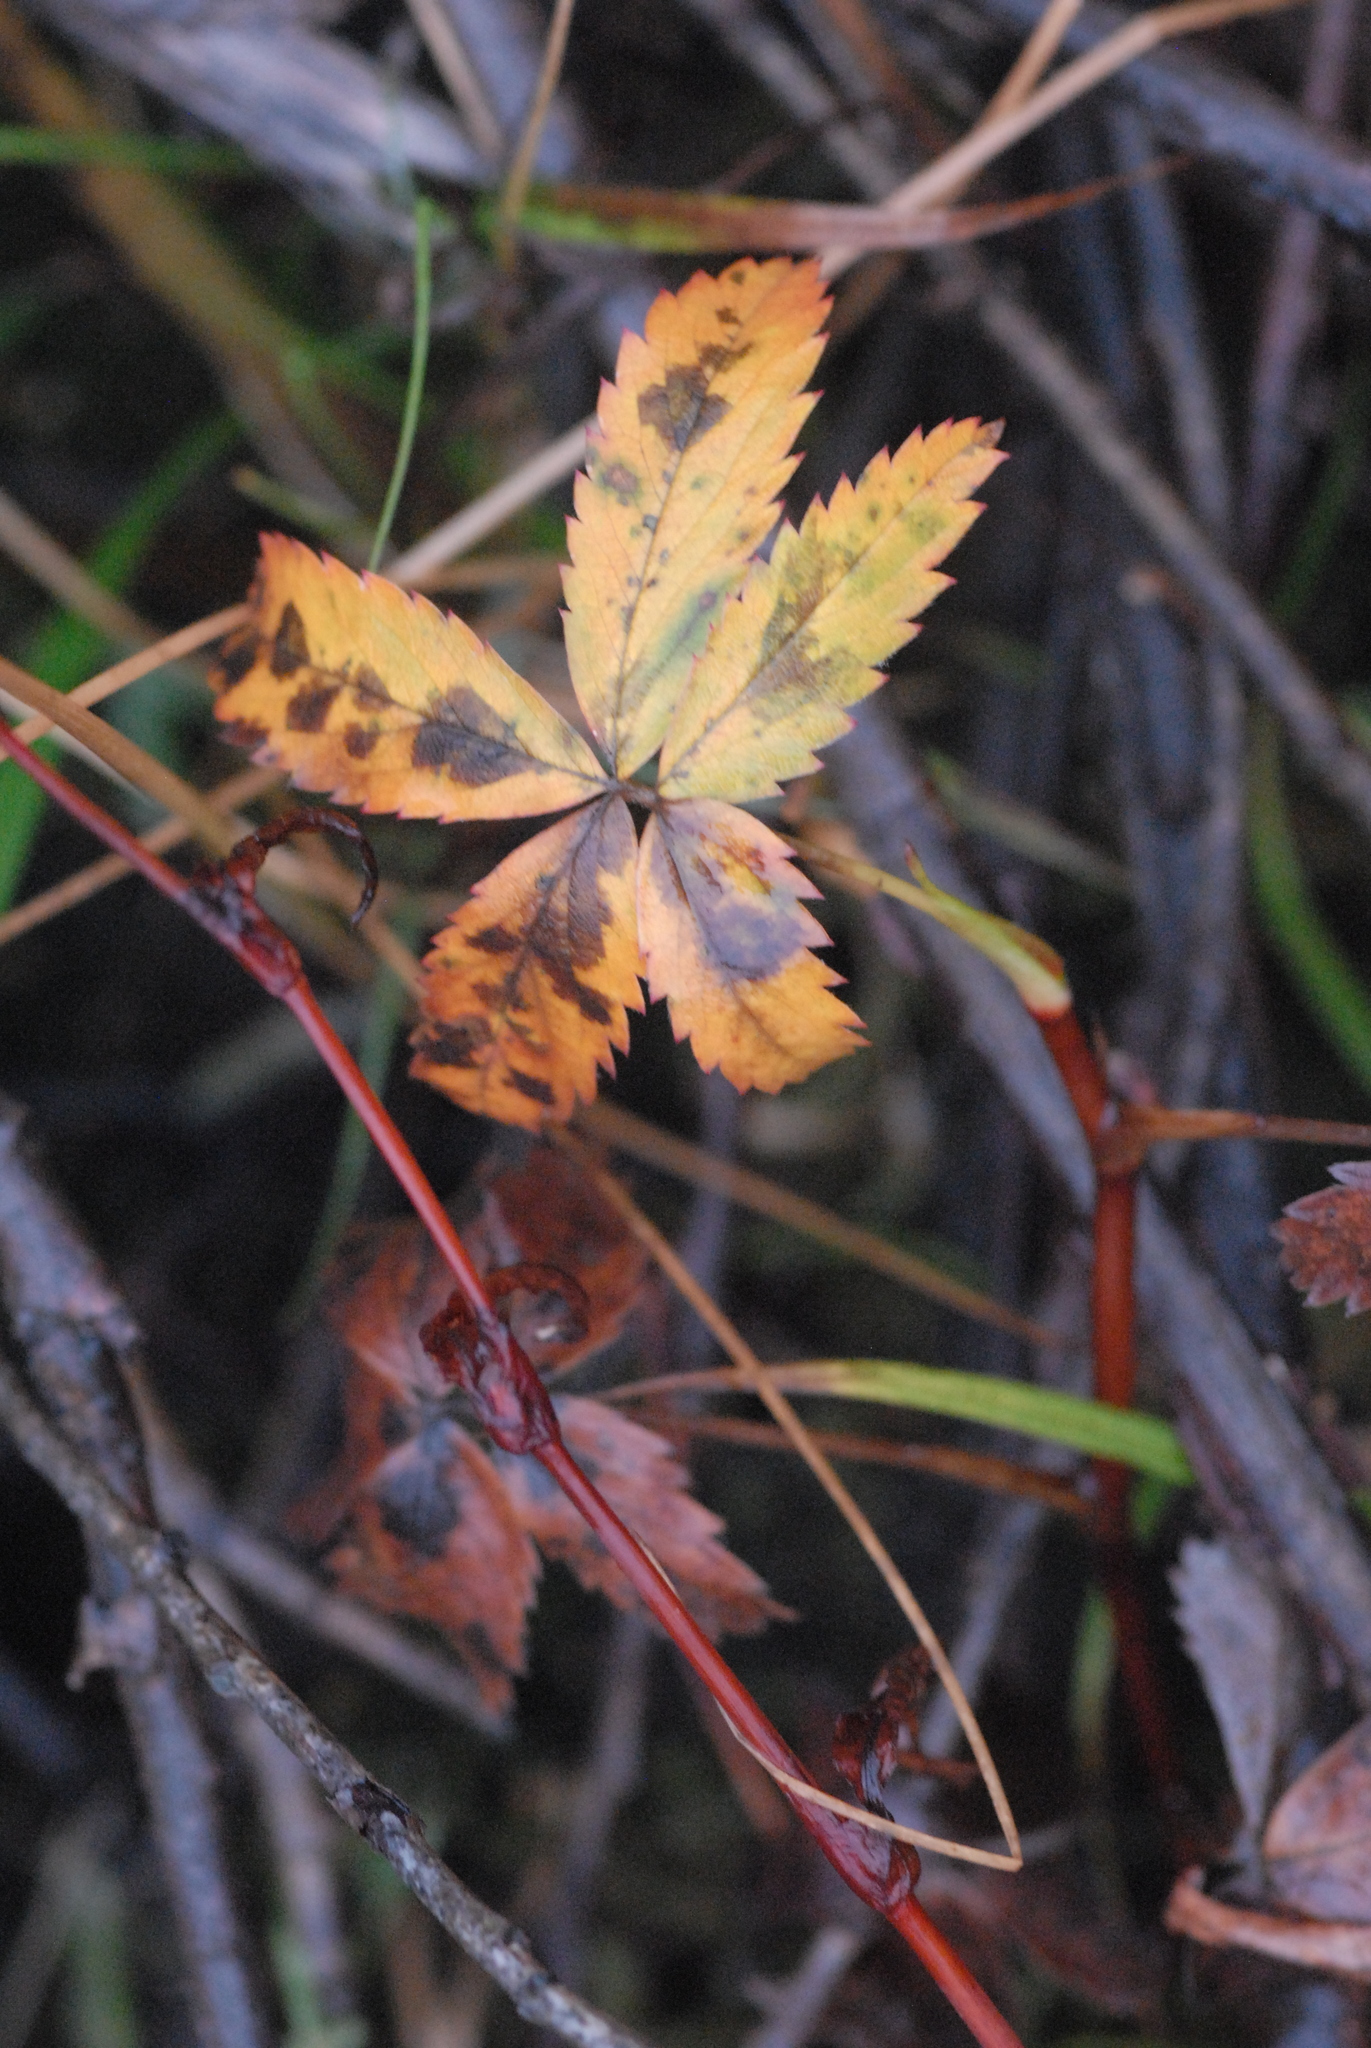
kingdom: Plantae
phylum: Tracheophyta
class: Magnoliopsida
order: Rosales
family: Rosaceae
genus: Comarum
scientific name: Comarum palustre
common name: Marsh cinquefoil
